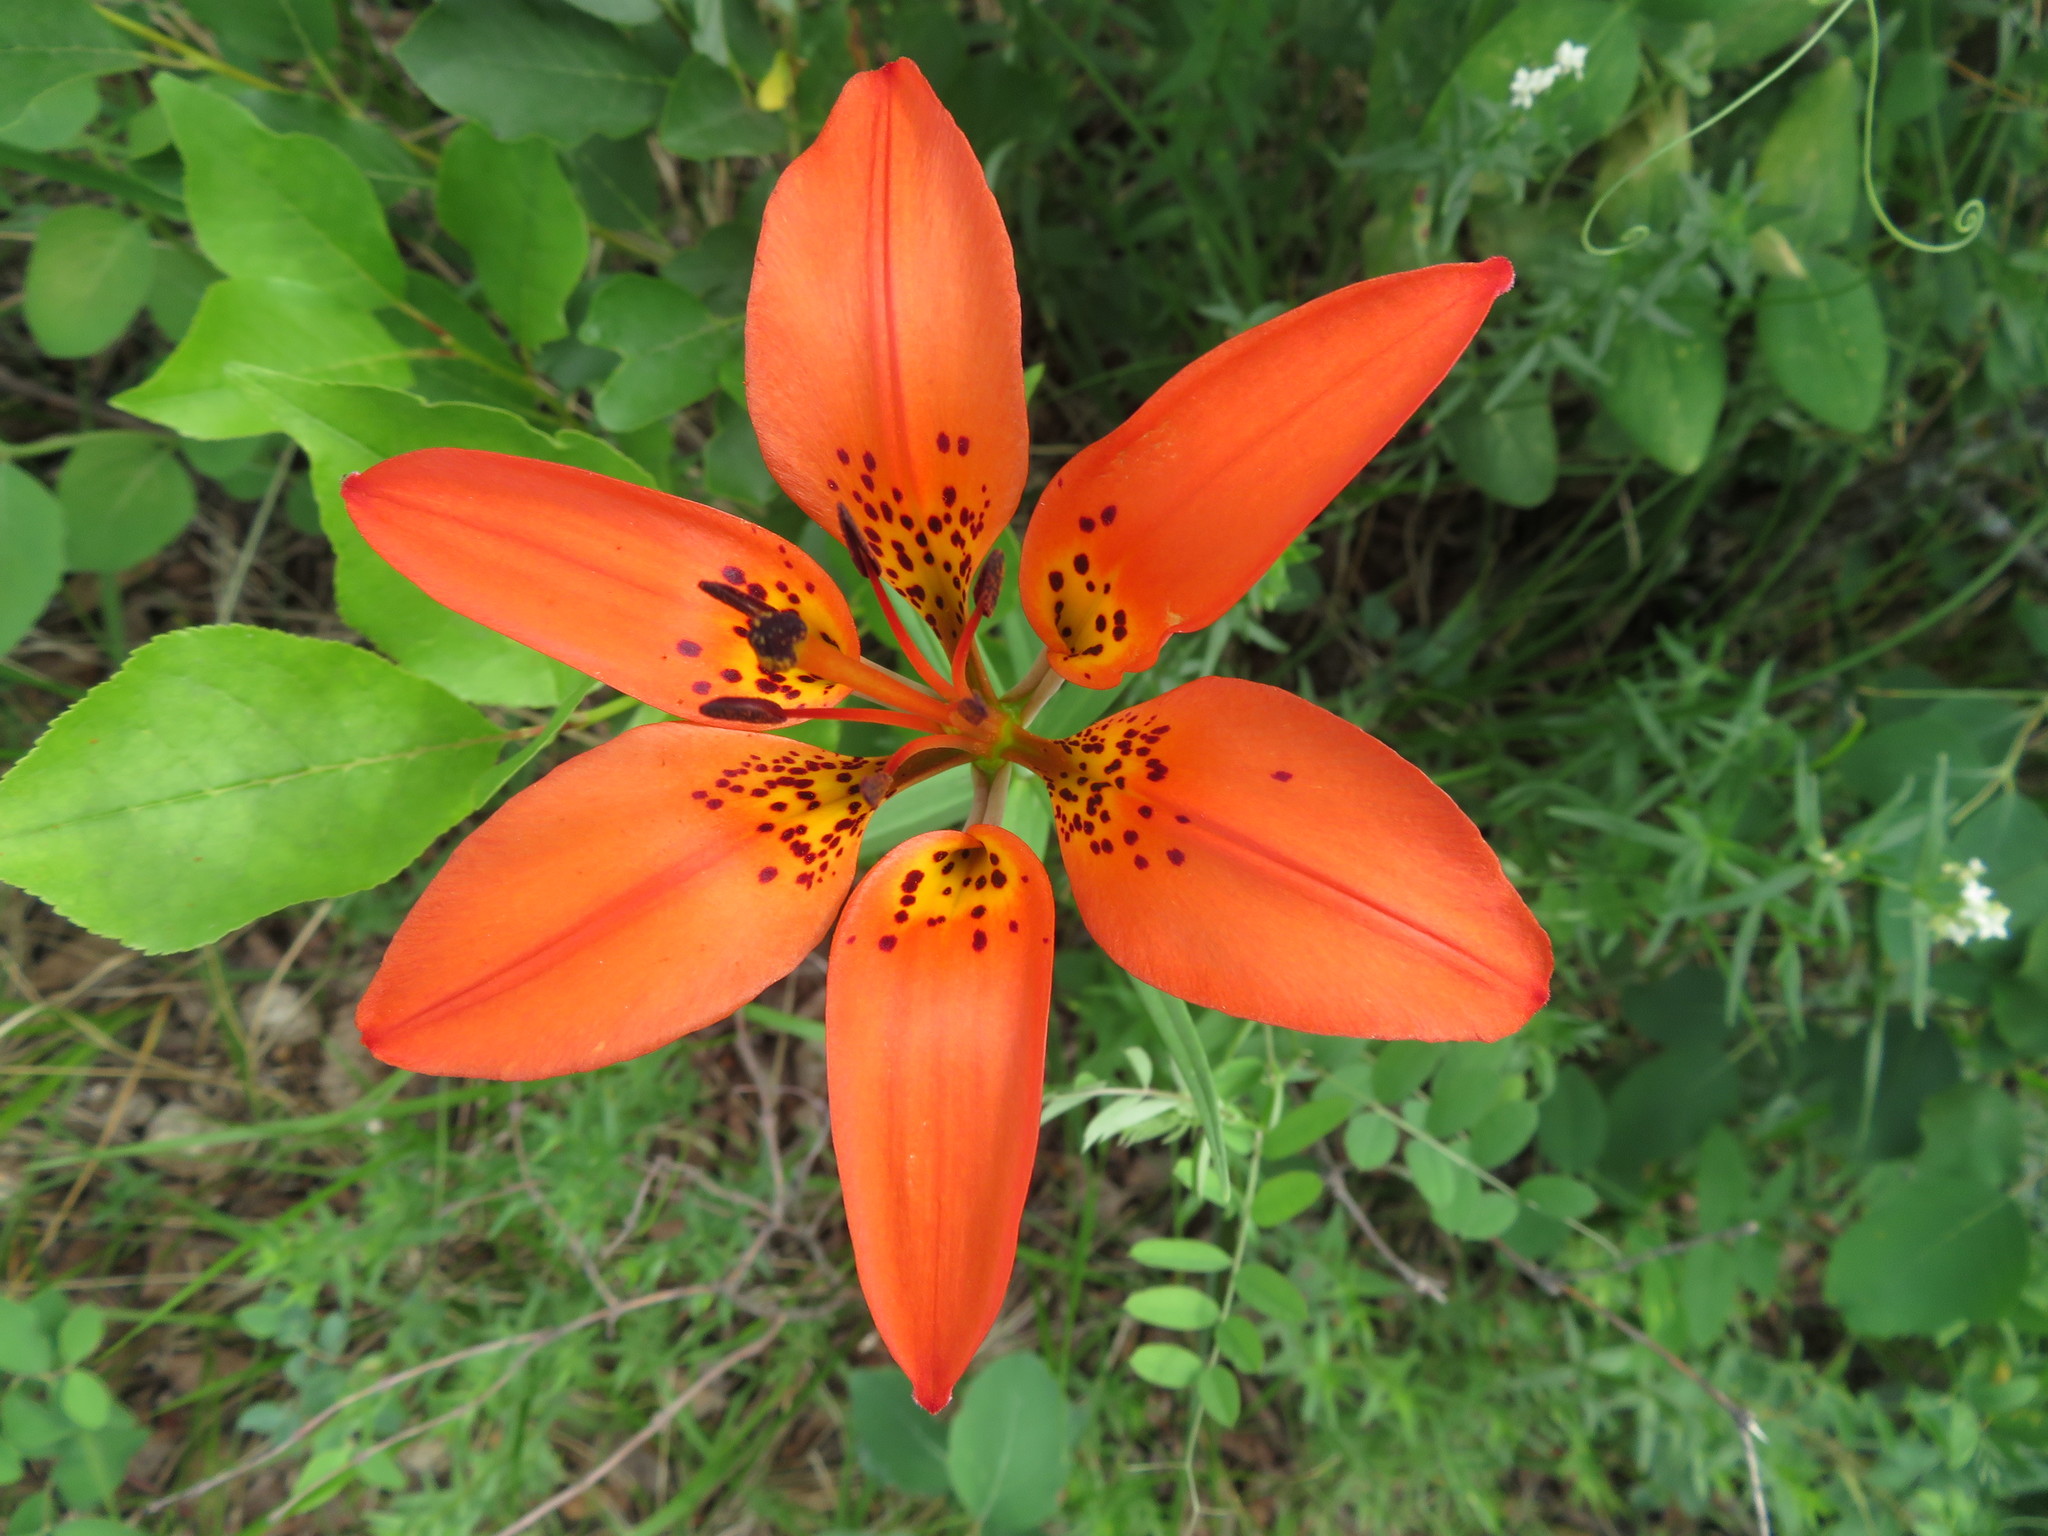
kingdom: Plantae
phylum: Tracheophyta
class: Liliopsida
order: Liliales
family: Liliaceae
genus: Lilium
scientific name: Lilium philadelphicum
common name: Red lily
